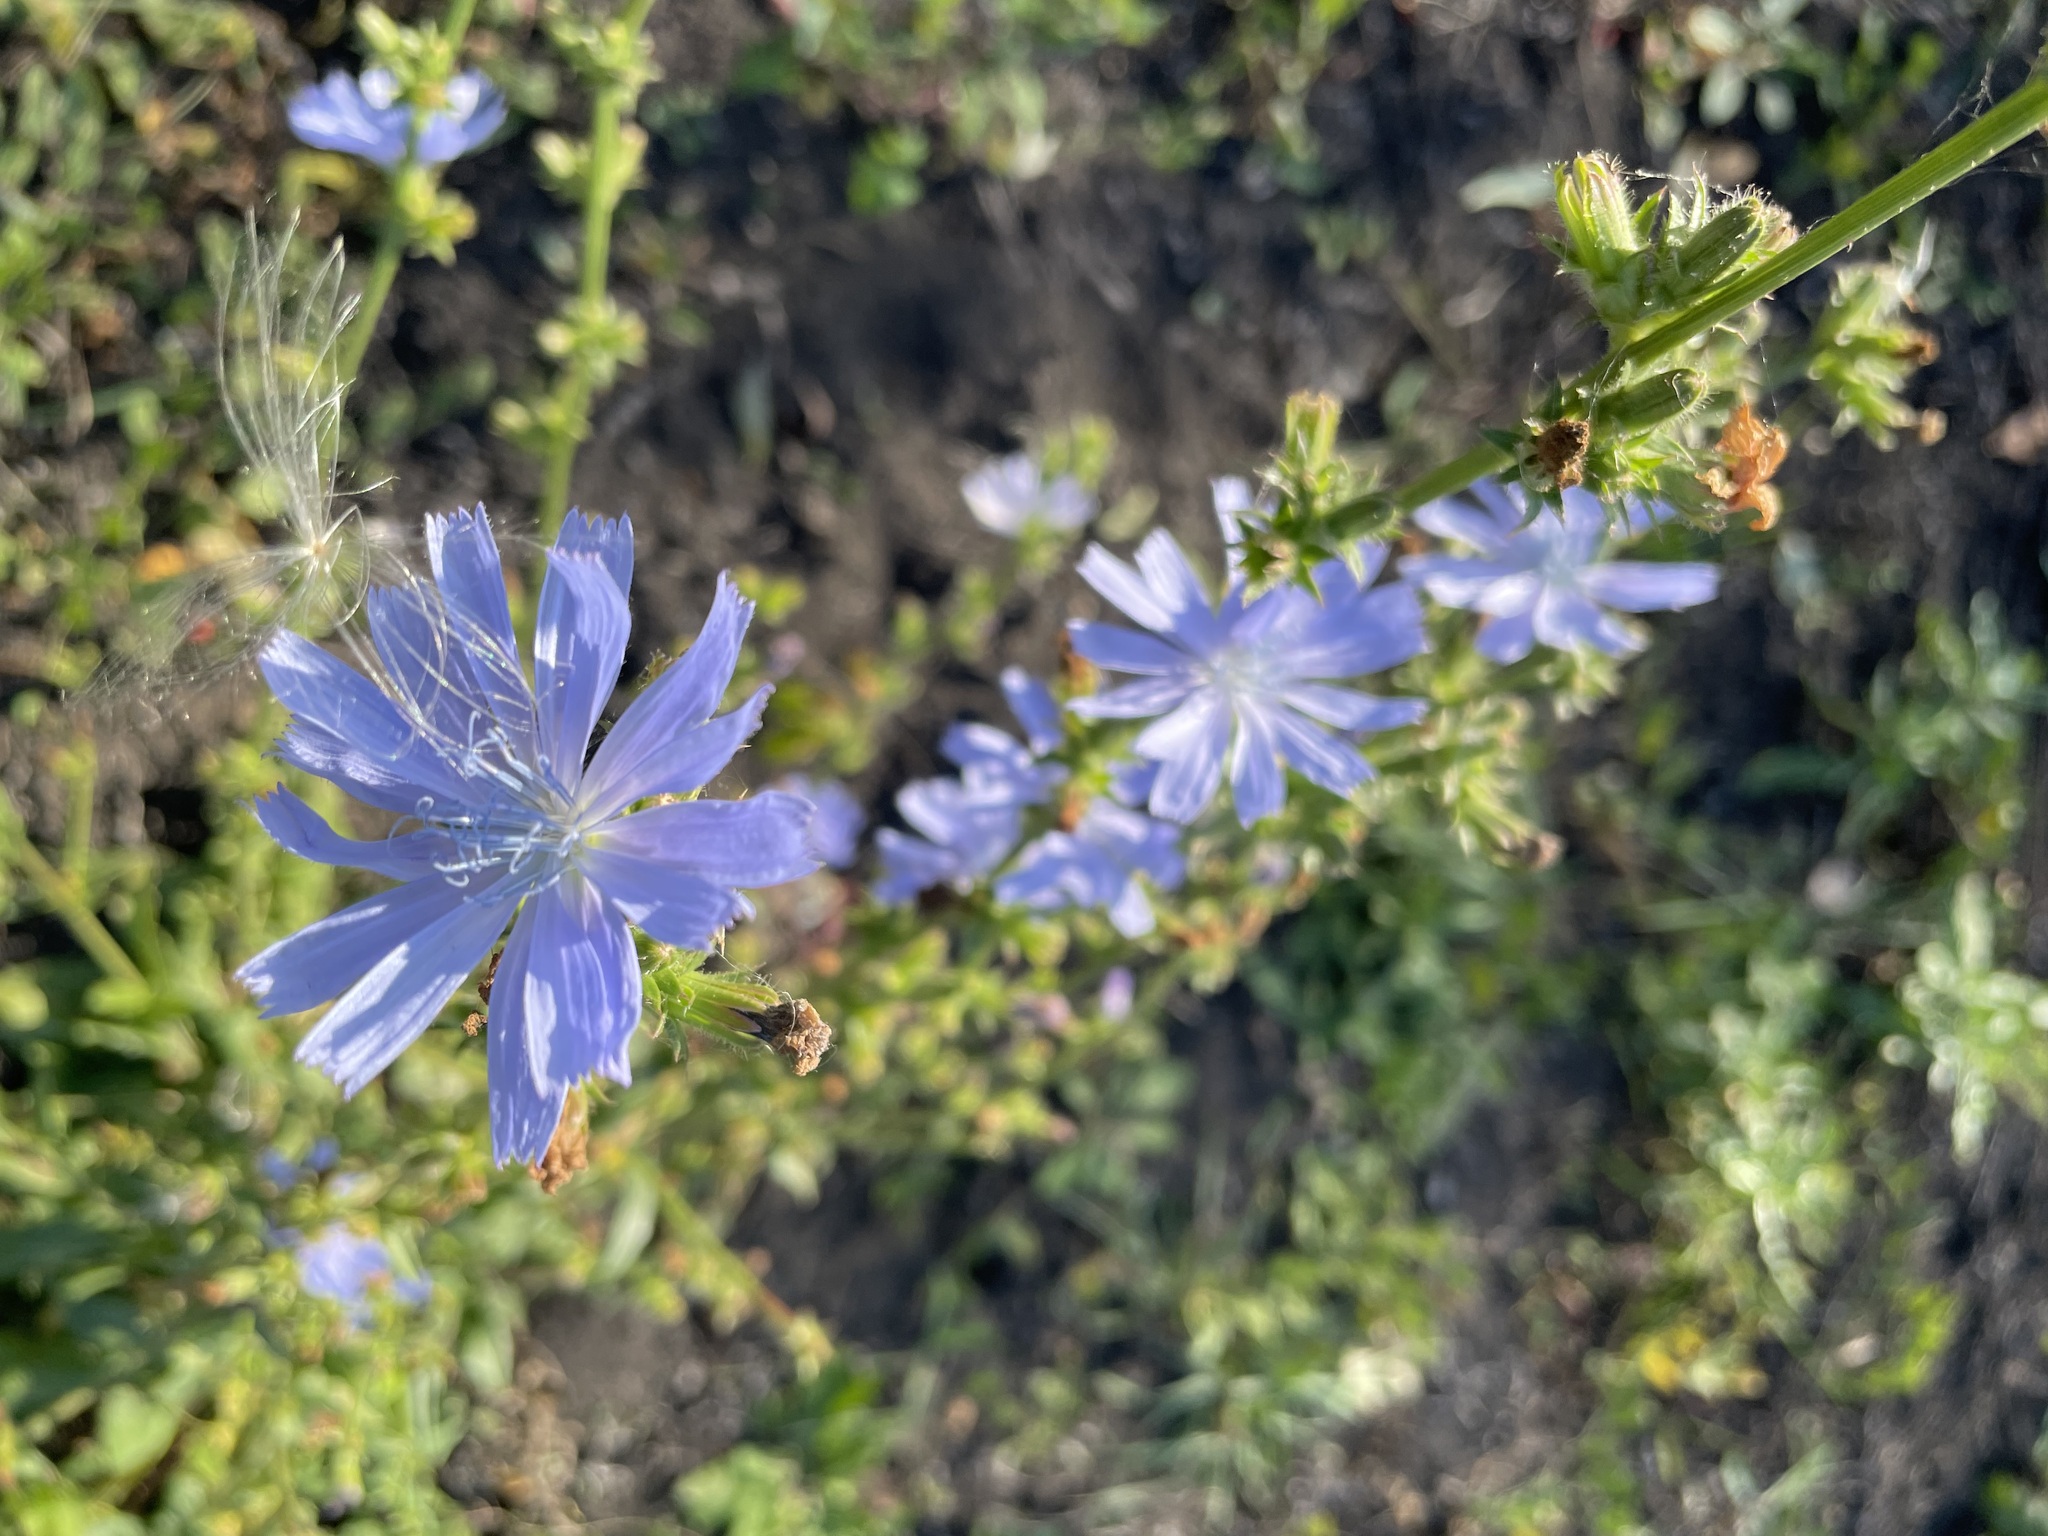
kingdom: Plantae
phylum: Tracheophyta
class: Magnoliopsida
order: Asterales
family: Asteraceae
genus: Cichorium
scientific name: Cichorium intybus
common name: Chicory
